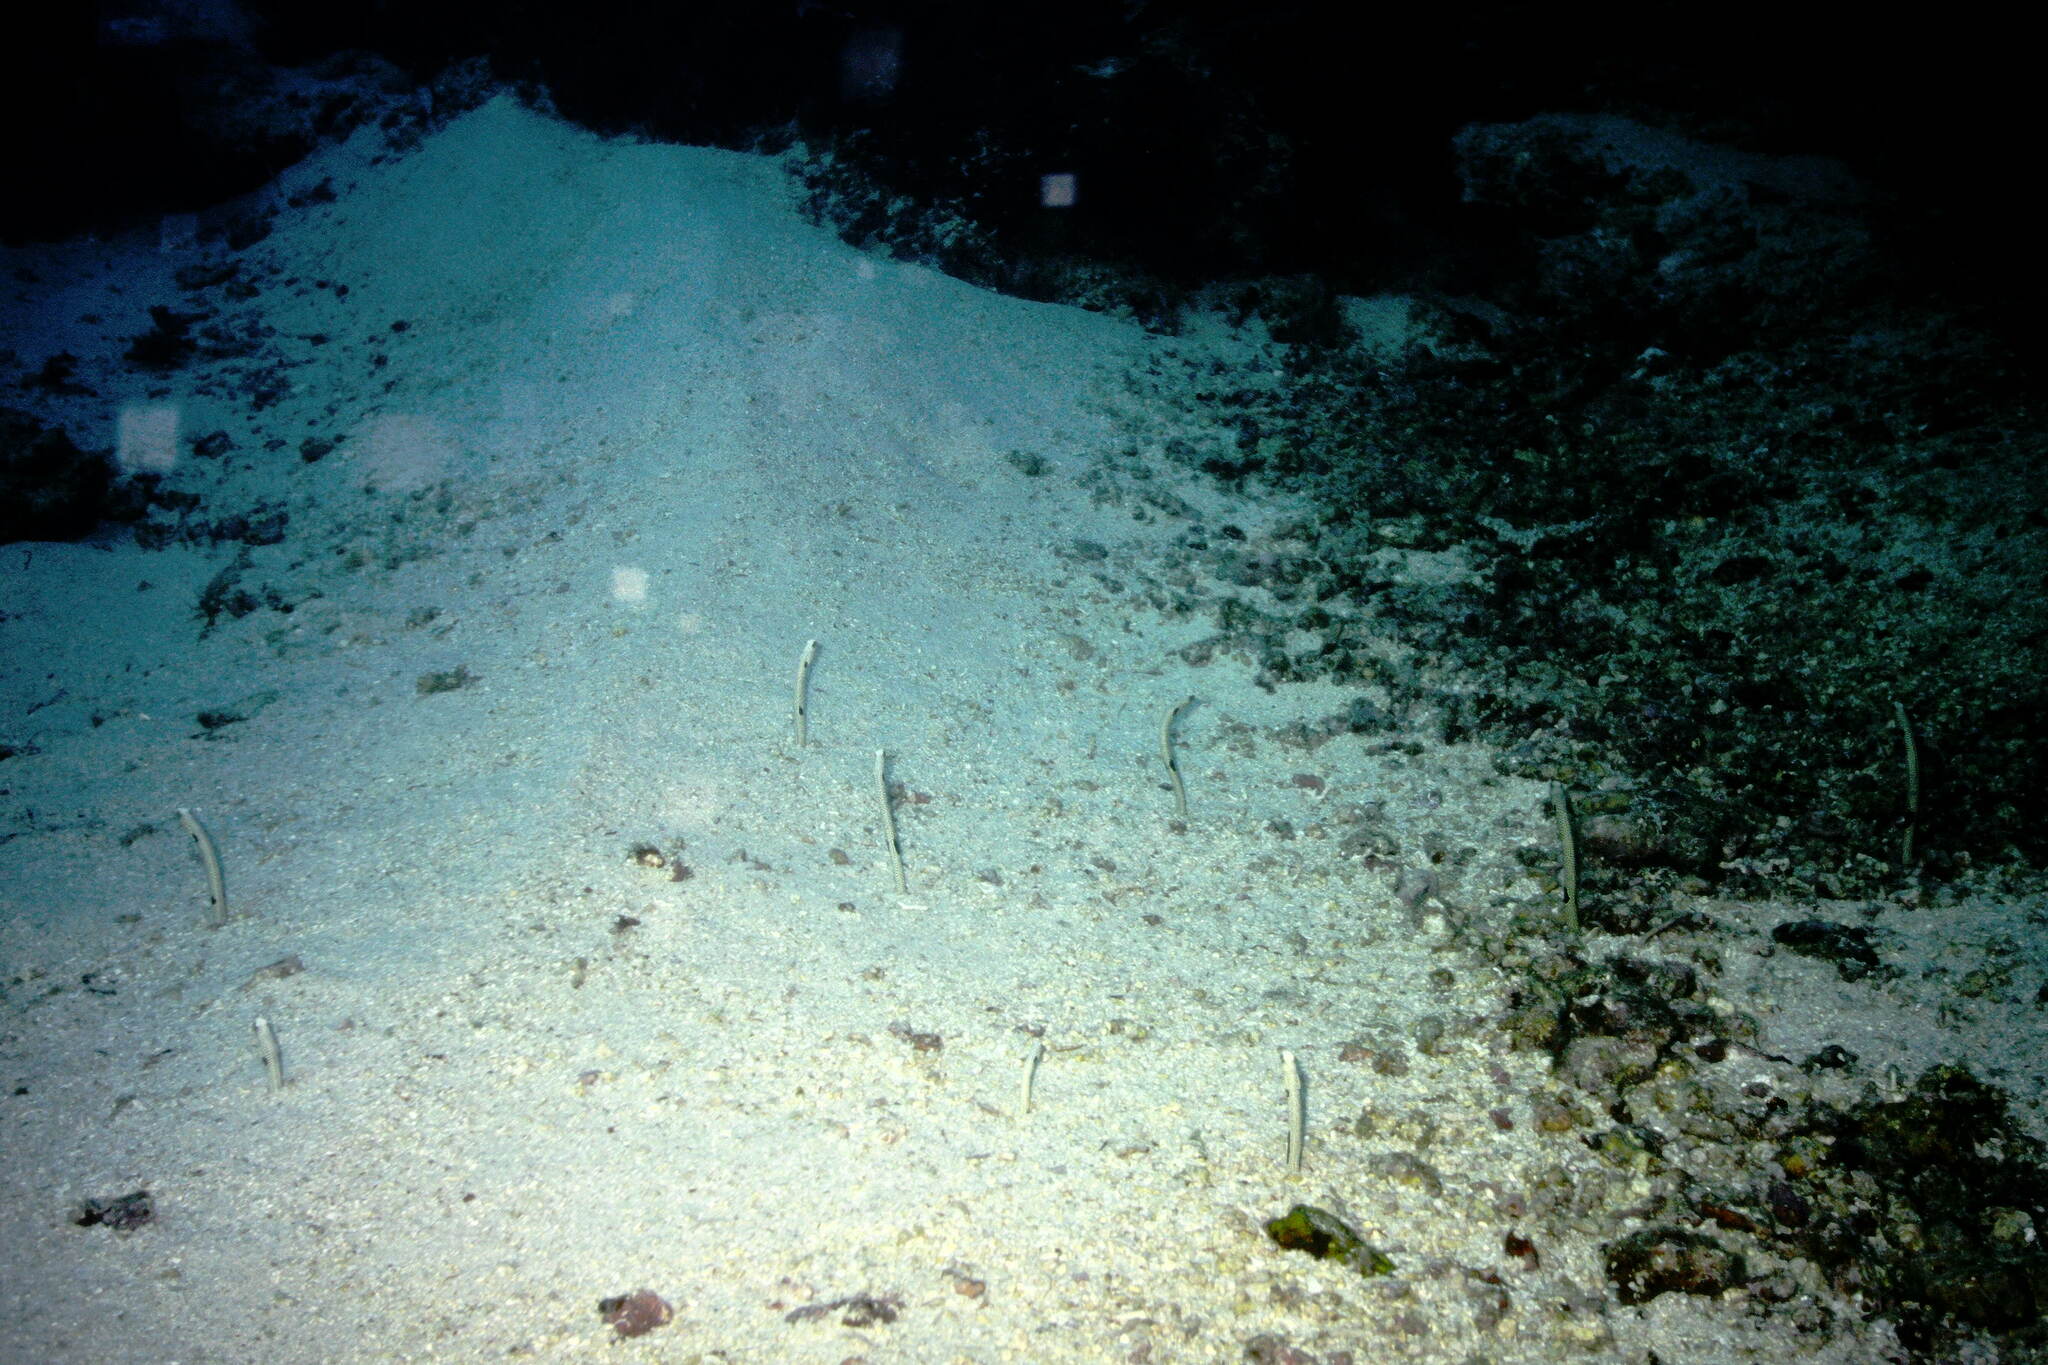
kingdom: Animalia
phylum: Chordata
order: Anguilliformes
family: Congridae
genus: Heteroconger
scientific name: Heteroconger hassi
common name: Spotted garden eel
